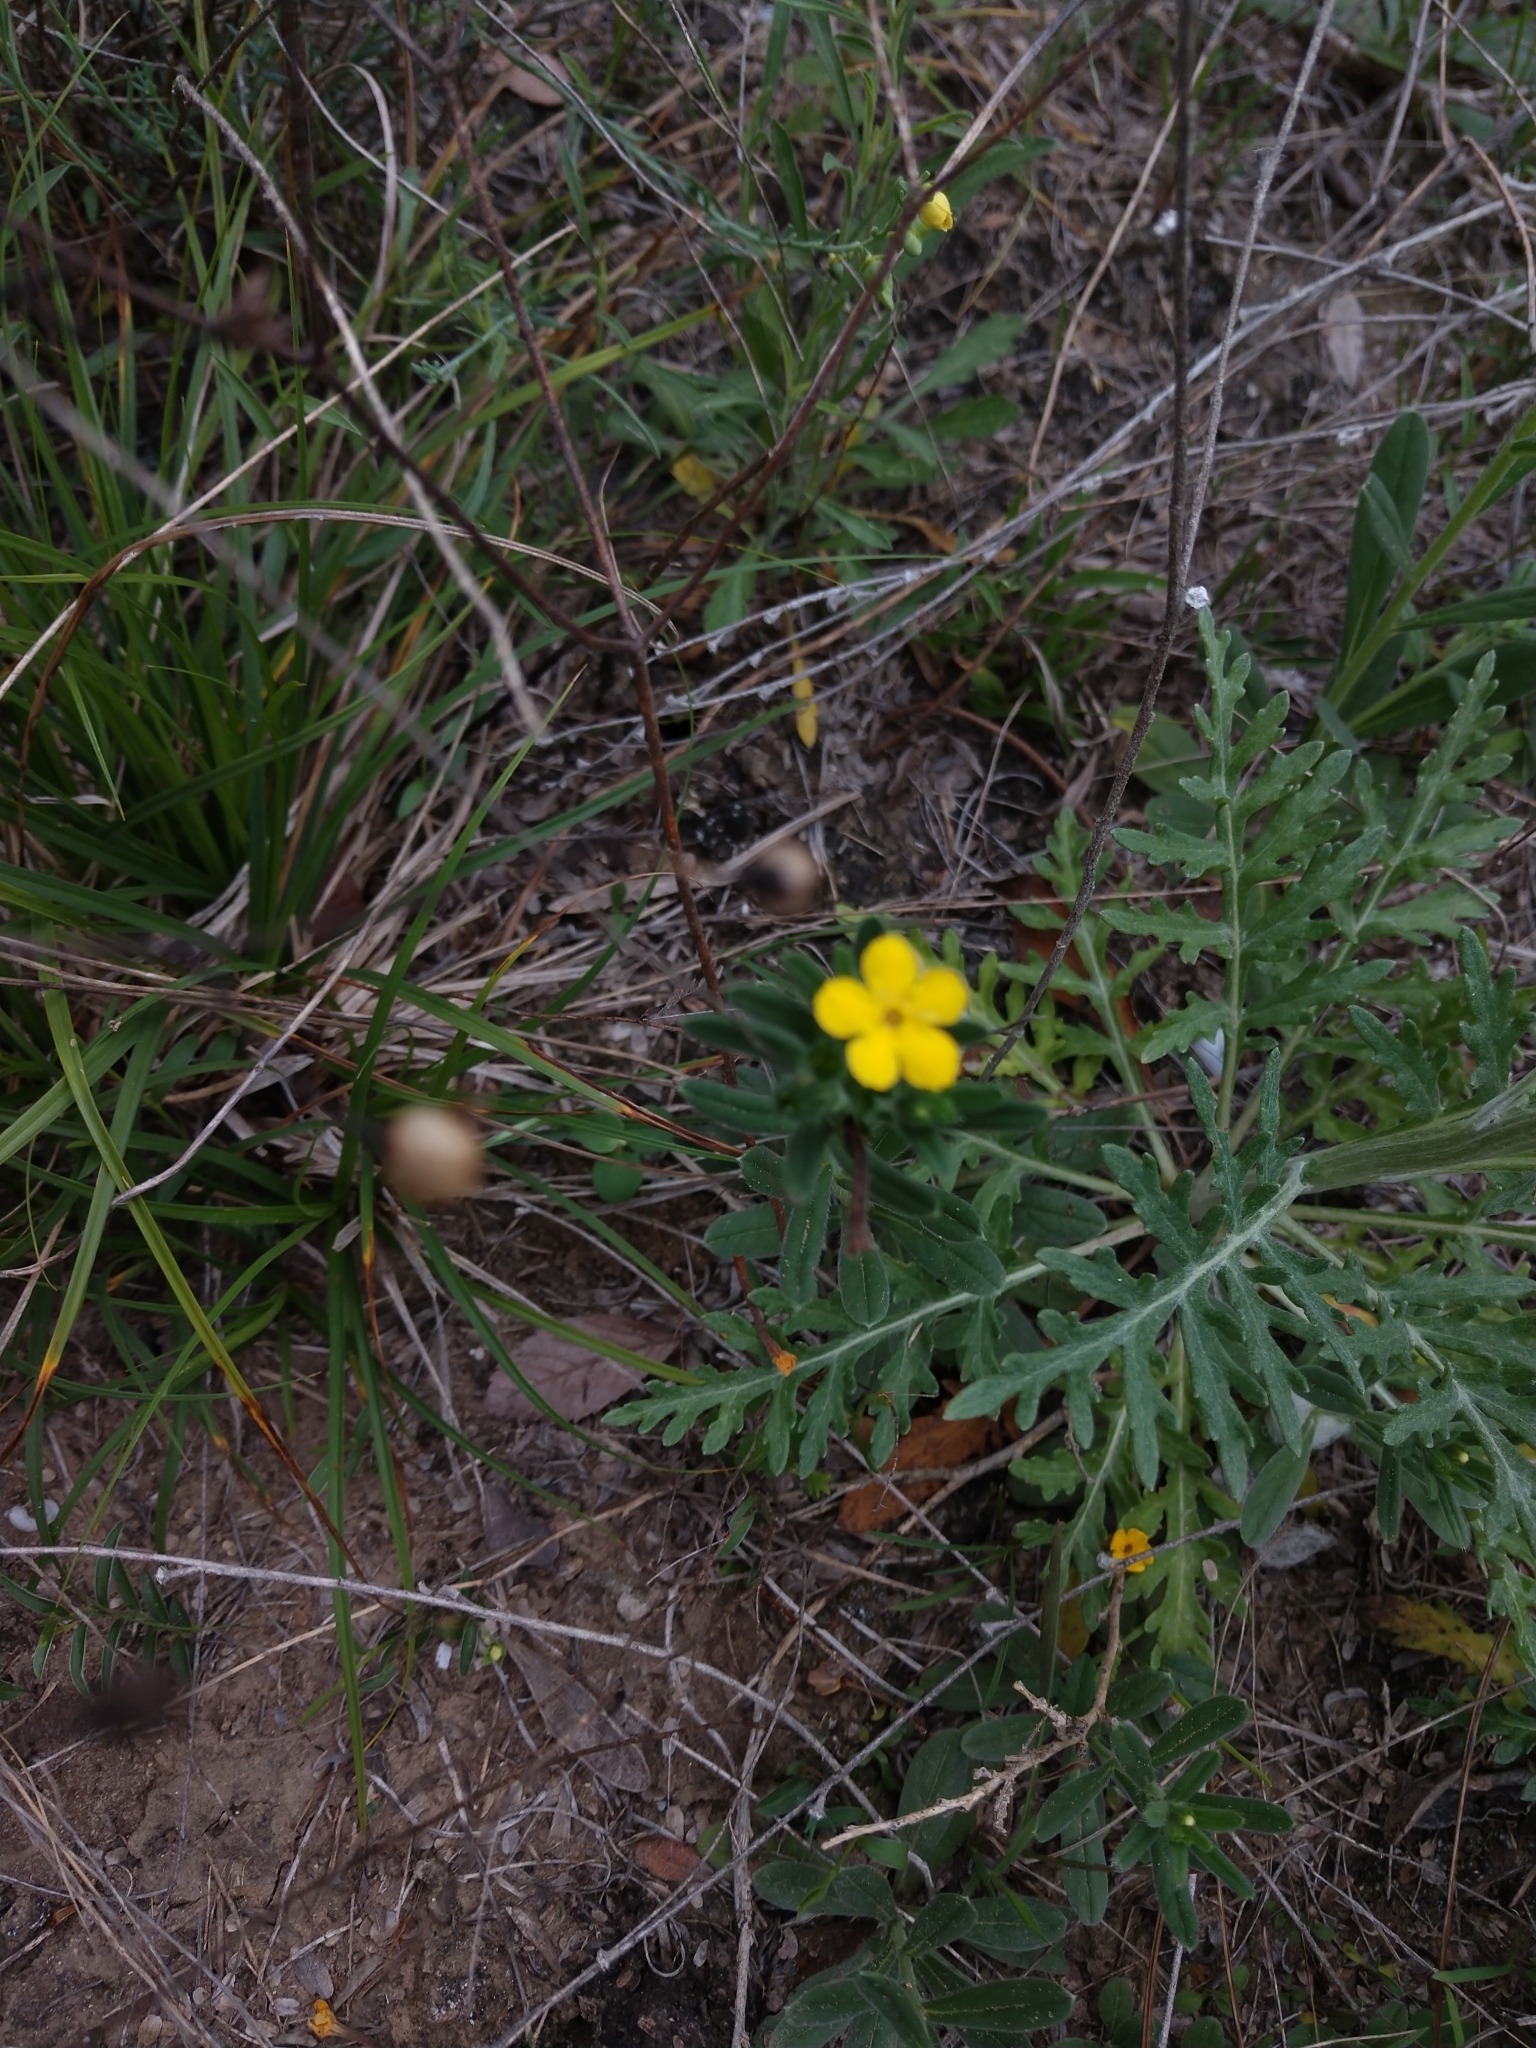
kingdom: Plantae
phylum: Tracheophyta
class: Magnoliopsida
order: Boraginales
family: Boraginaceae
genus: Lithospermum
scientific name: Lithospermum mirabile
